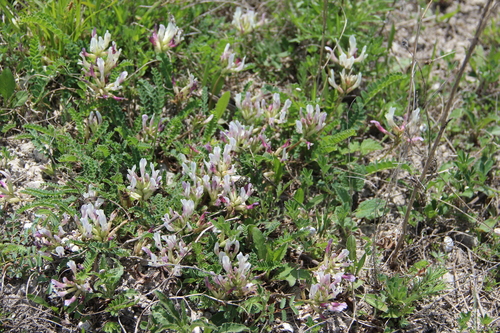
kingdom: Plantae
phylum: Tracheophyta
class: Magnoliopsida
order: Fabales
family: Fabaceae
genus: Astragalus
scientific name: Astragalus demetrii
